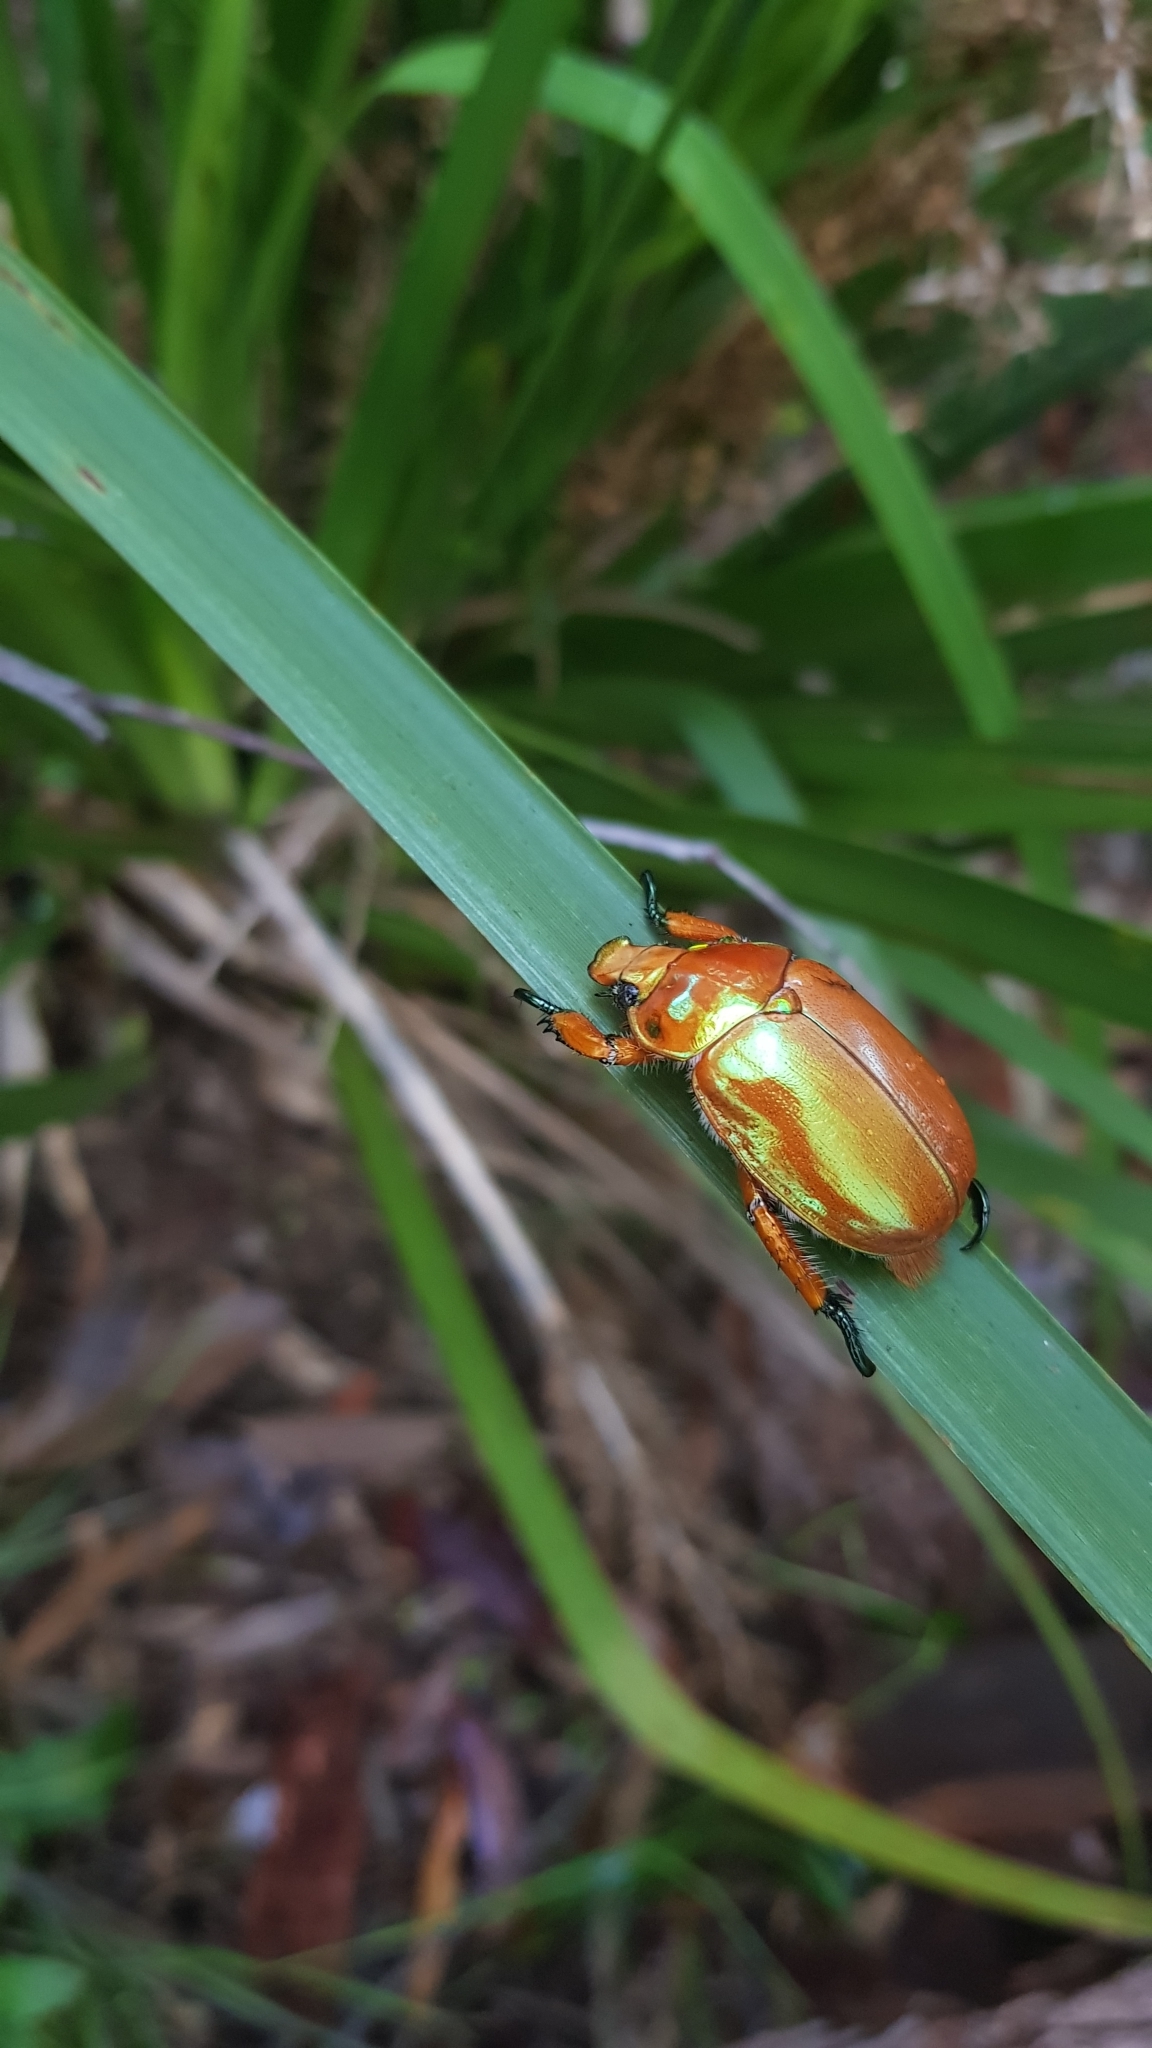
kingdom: Animalia
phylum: Arthropoda
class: Insecta
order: Coleoptera
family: Scarabaeidae
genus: Anoplognathus
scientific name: Anoplognathus viriditarsis
